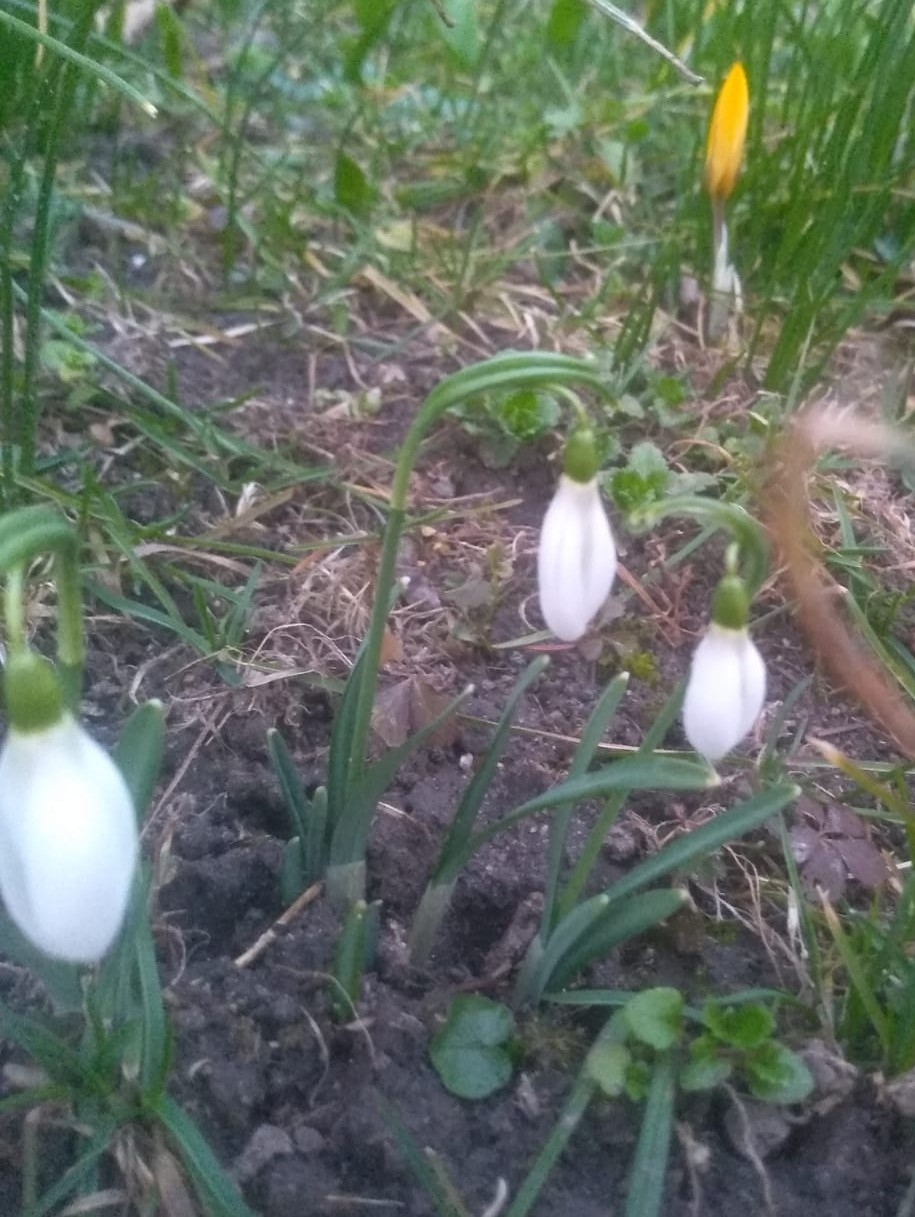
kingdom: Plantae
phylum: Tracheophyta
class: Liliopsida
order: Asparagales
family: Amaryllidaceae
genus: Galanthus
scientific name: Galanthus nivalis
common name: Snowdrop
